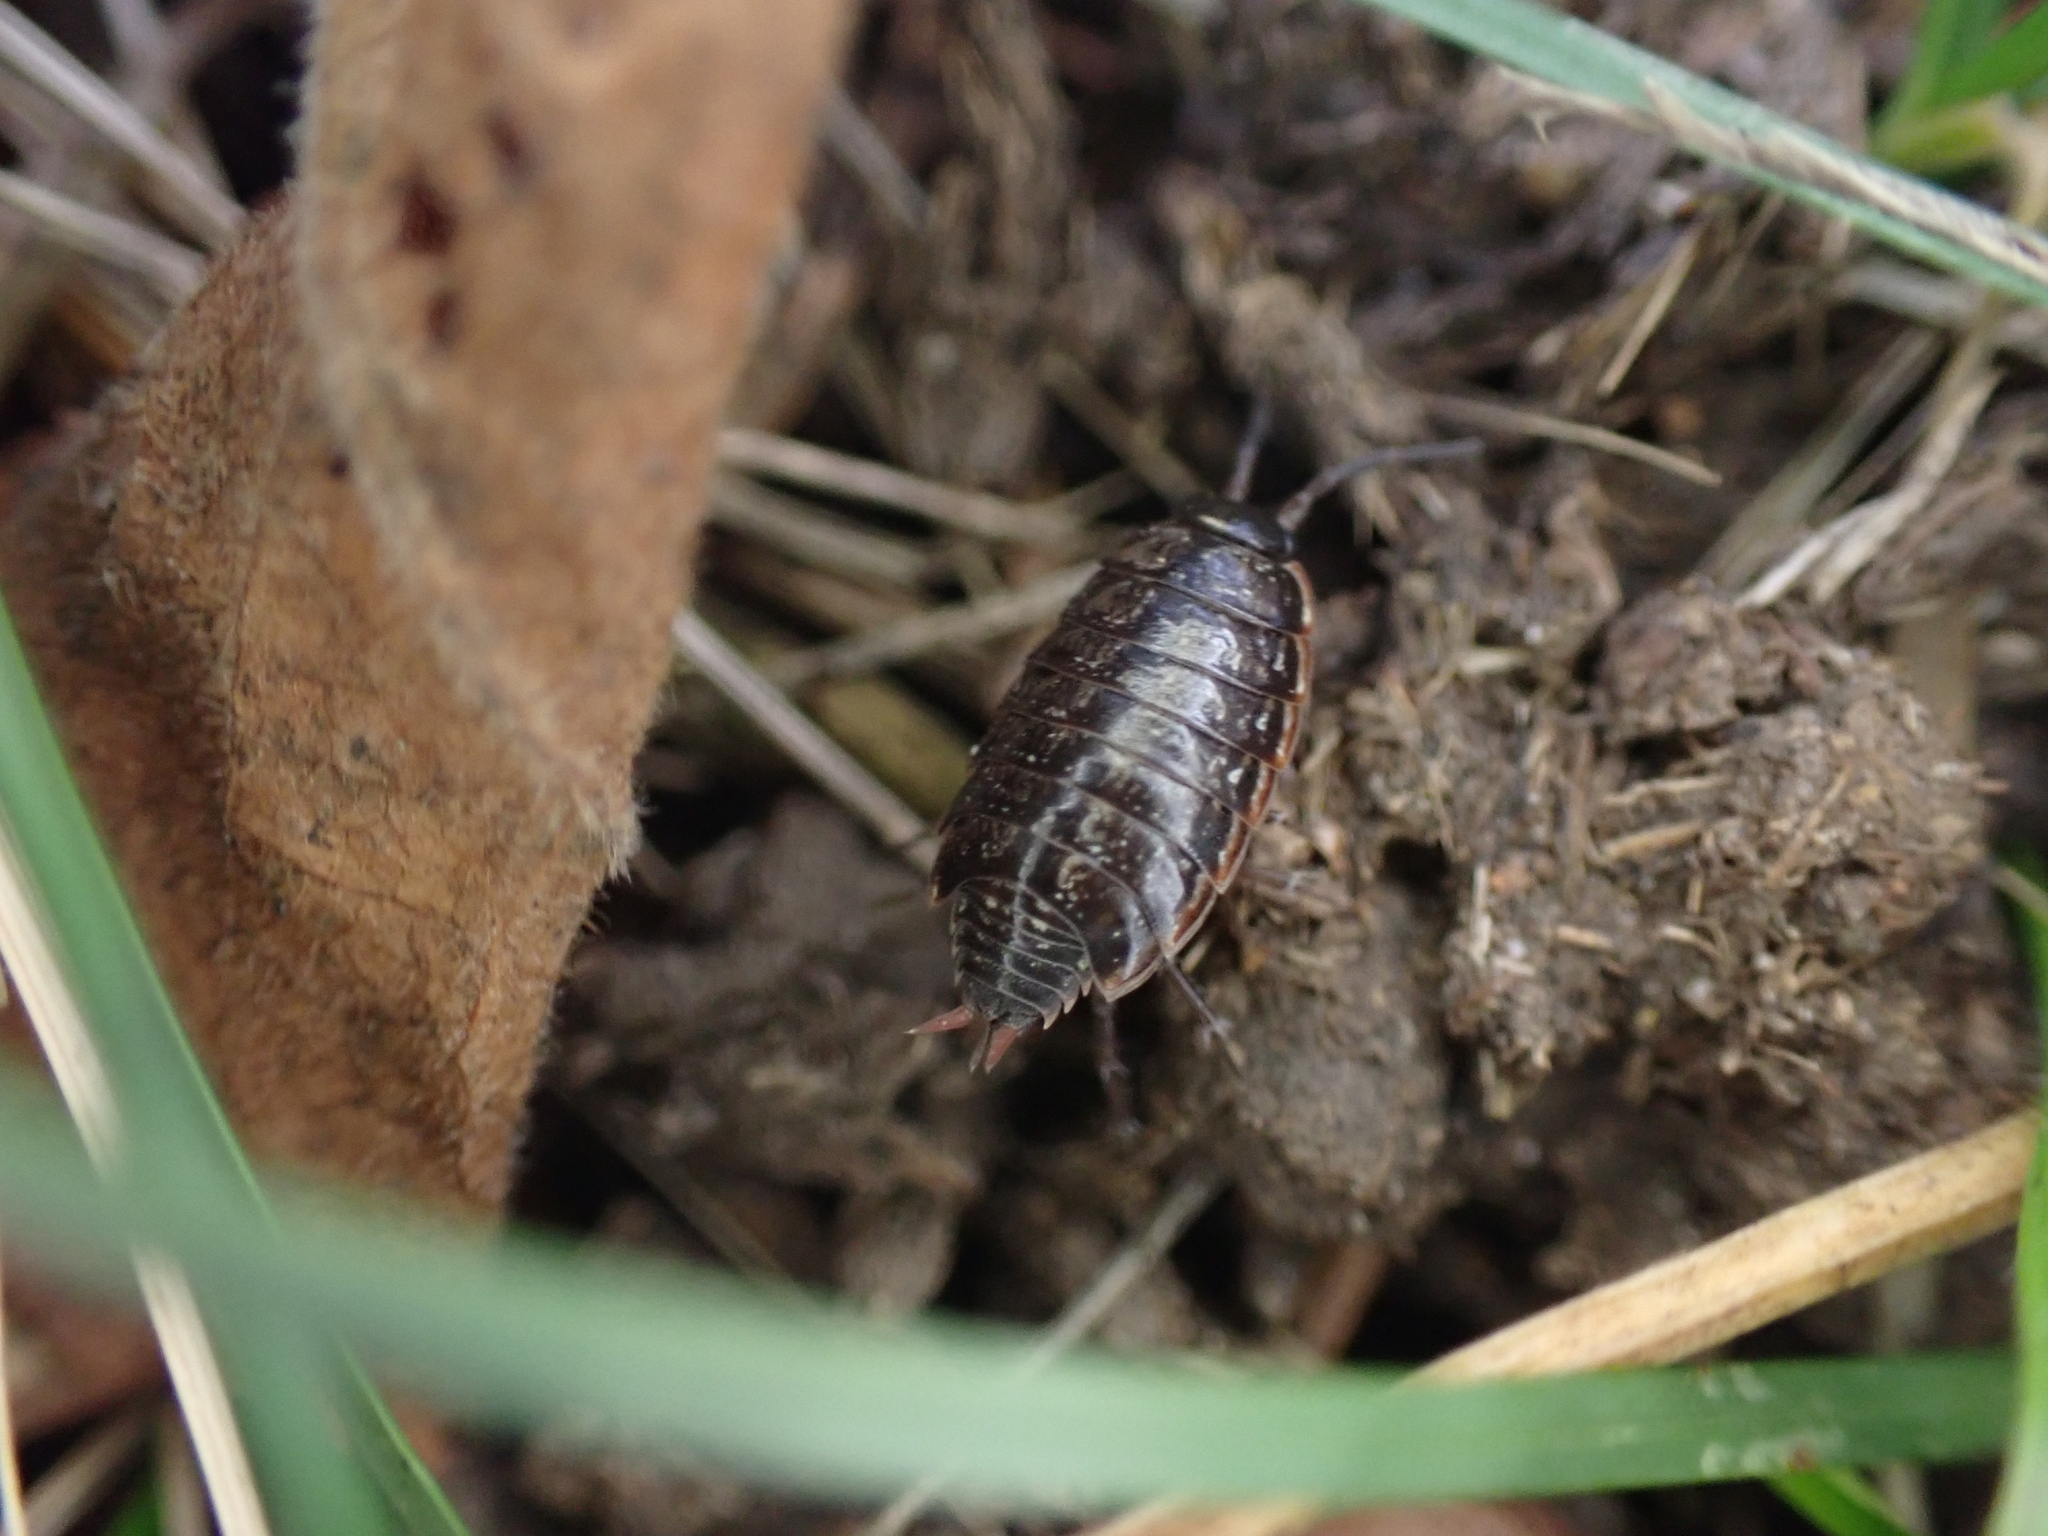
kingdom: Animalia
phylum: Arthropoda
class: Malacostraca
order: Isopoda
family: Philosciidae
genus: Philoscia
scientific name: Philoscia muscorum
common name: Common striped woodlouse
